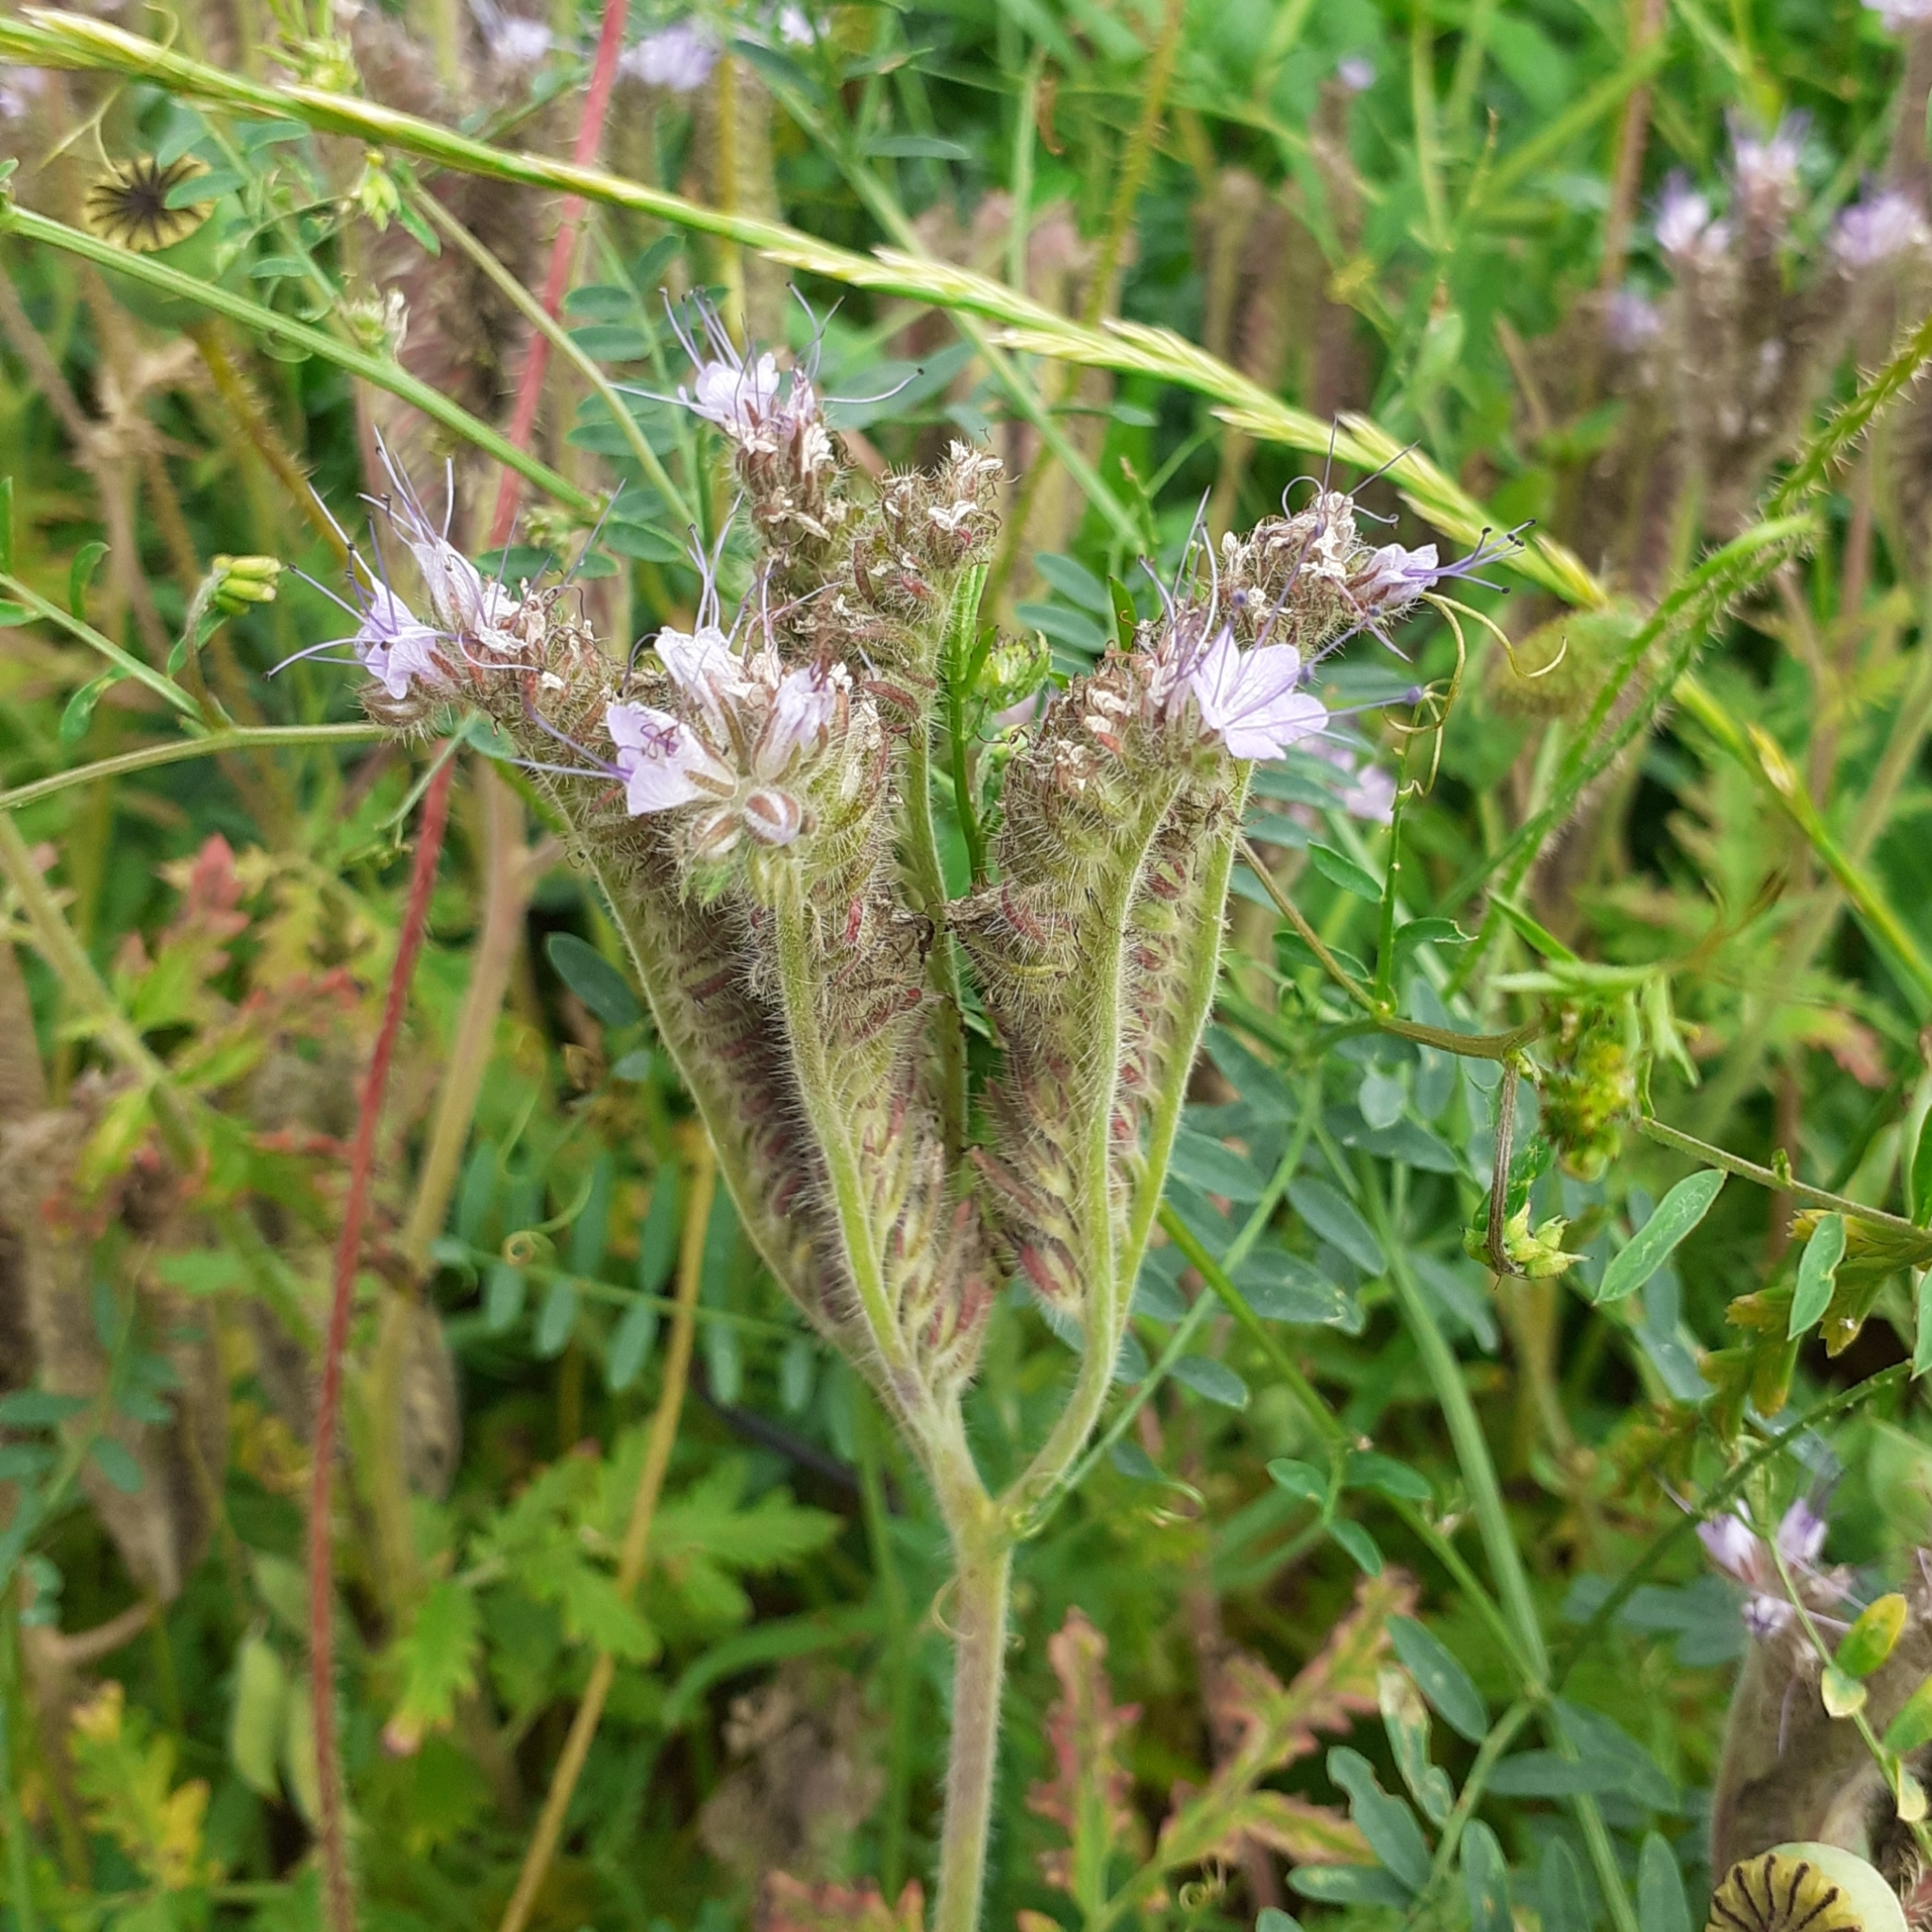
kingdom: Plantae
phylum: Tracheophyta
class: Magnoliopsida
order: Boraginales
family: Hydrophyllaceae
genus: Phacelia
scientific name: Phacelia tanacetifolia
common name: Phacelia
